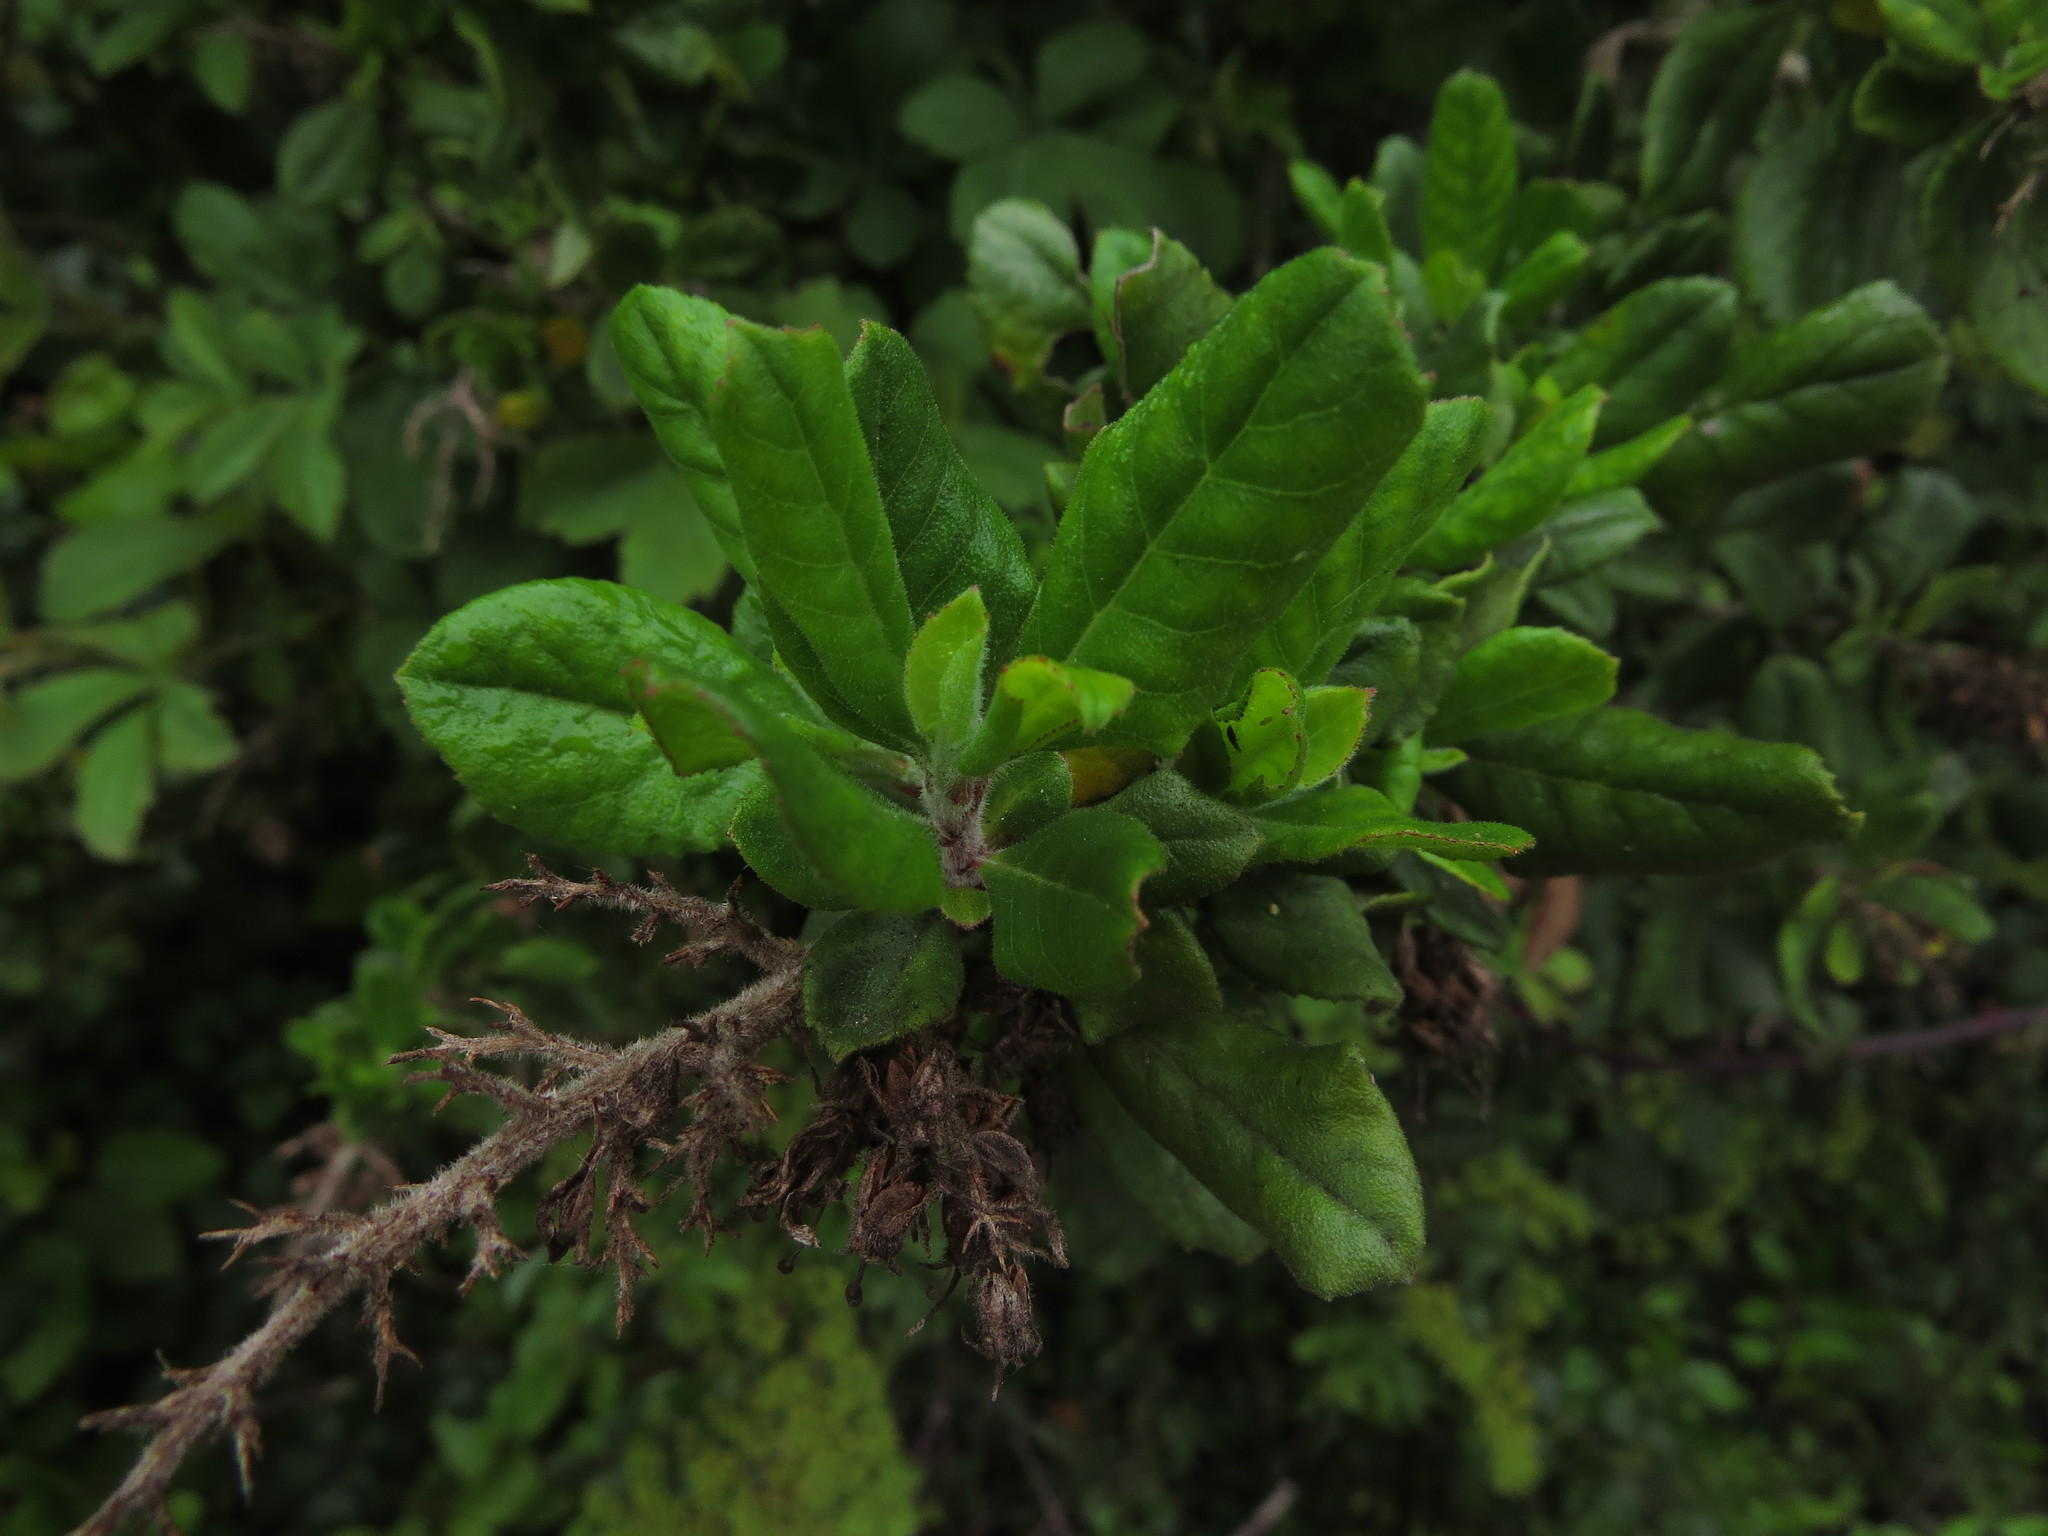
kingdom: Plantae
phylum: Tracheophyta
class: Magnoliopsida
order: Escalloniales
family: Escalloniaceae
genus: Escallonia
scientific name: Escallonia revoluta
